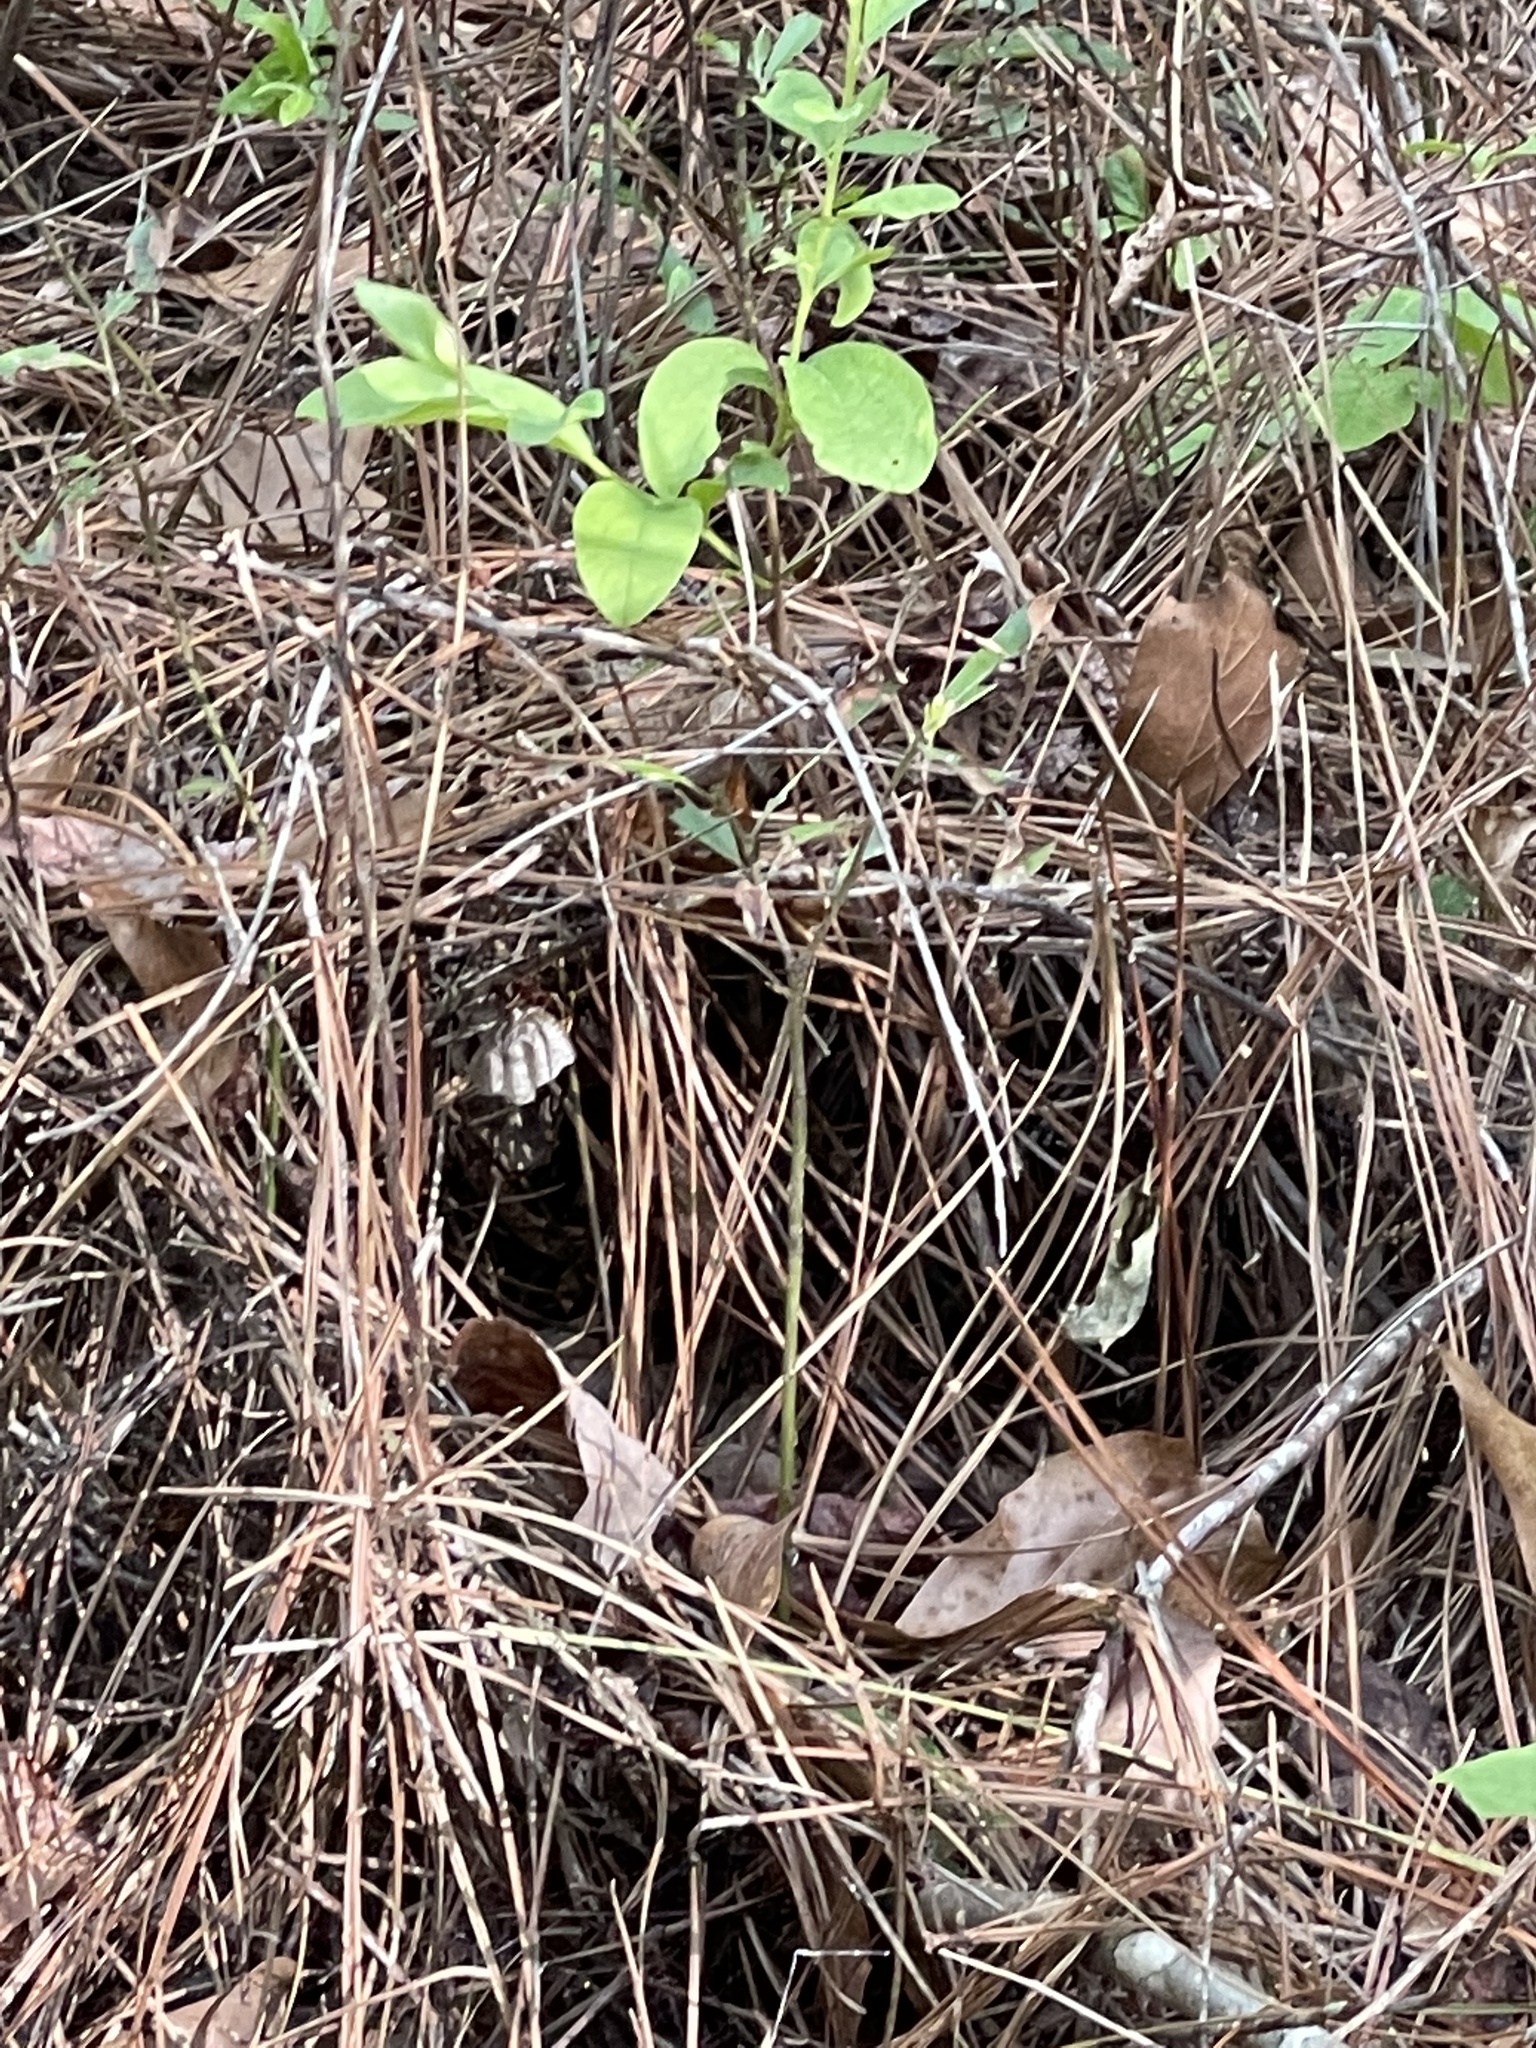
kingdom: Animalia
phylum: Arthropoda
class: Insecta
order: Hymenoptera
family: Eumenidae
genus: Polistes
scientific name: Polistes
